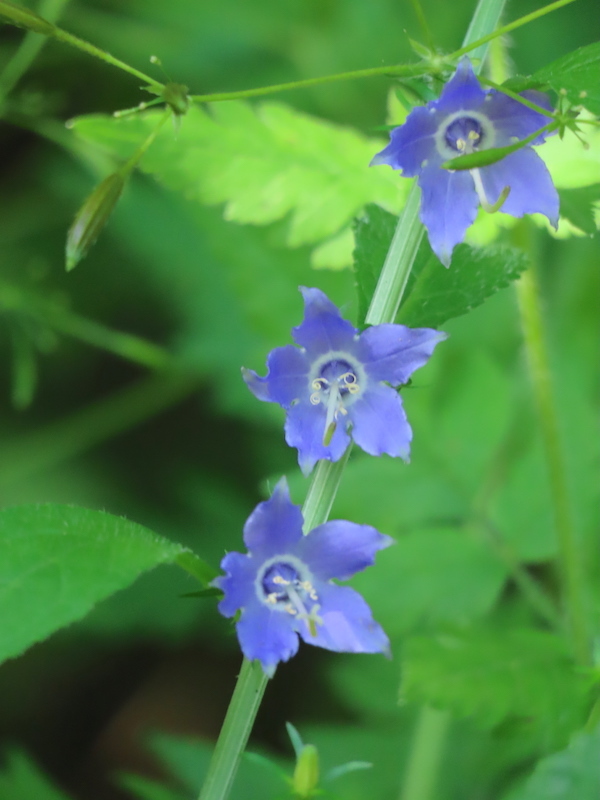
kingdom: Plantae
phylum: Tracheophyta
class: Magnoliopsida
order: Asterales
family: Campanulaceae
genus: Campanulastrum
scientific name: Campanulastrum americanum
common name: American bellflower
